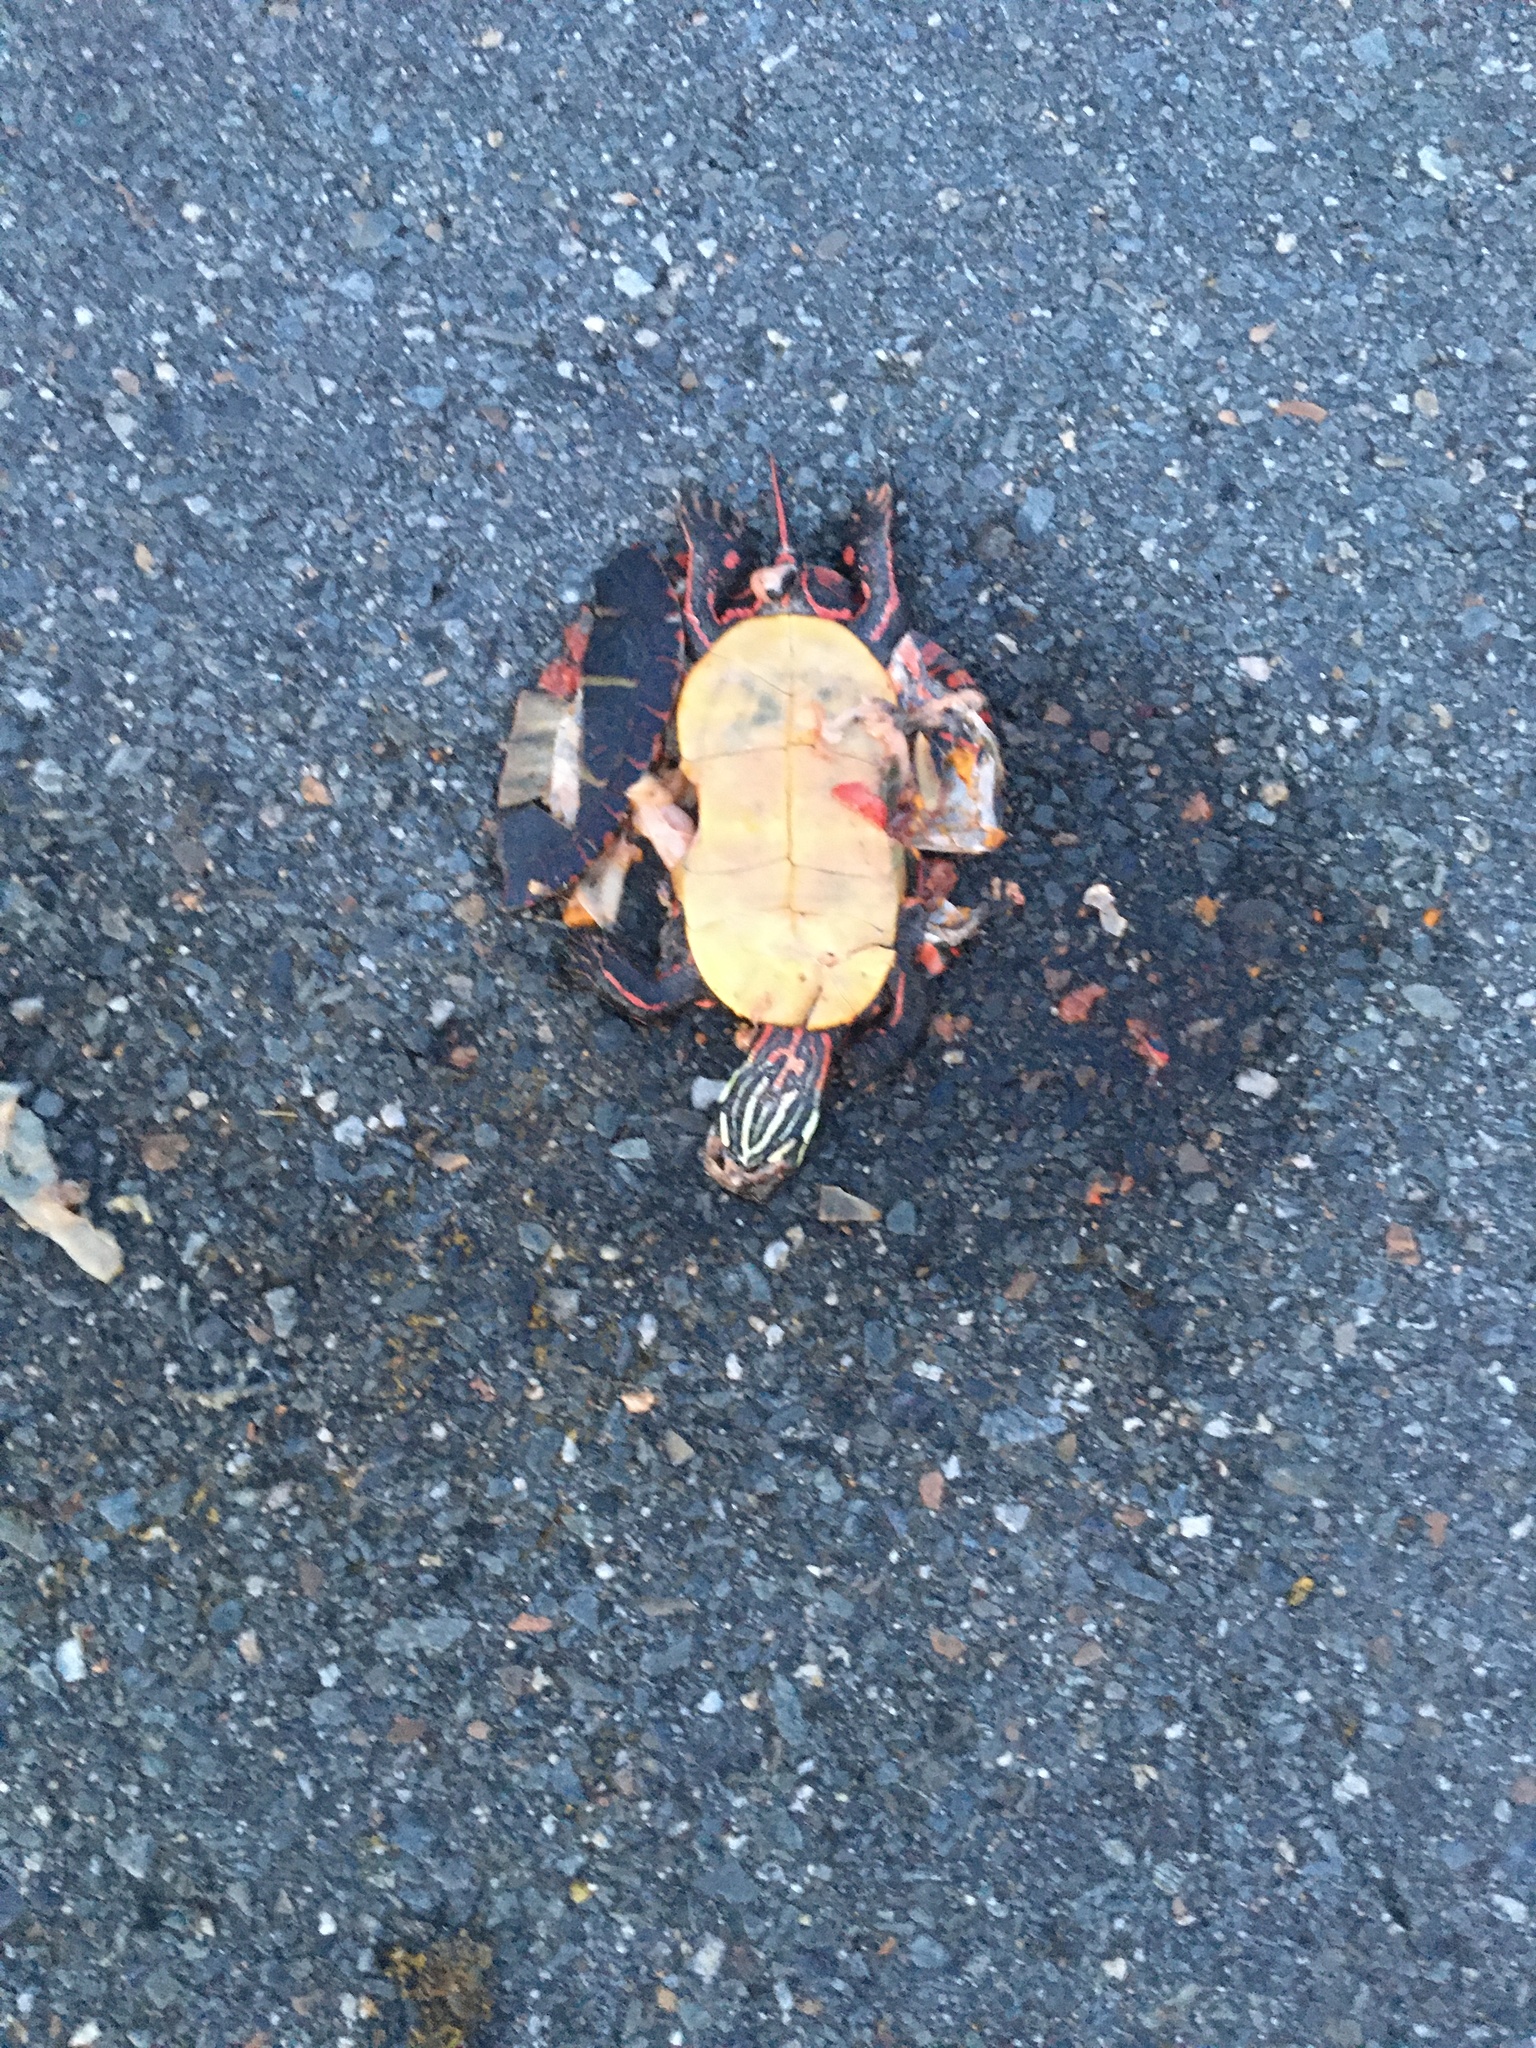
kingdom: Animalia
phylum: Chordata
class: Testudines
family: Emydidae
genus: Chrysemys
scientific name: Chrysemys picta
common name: Painted turtle
